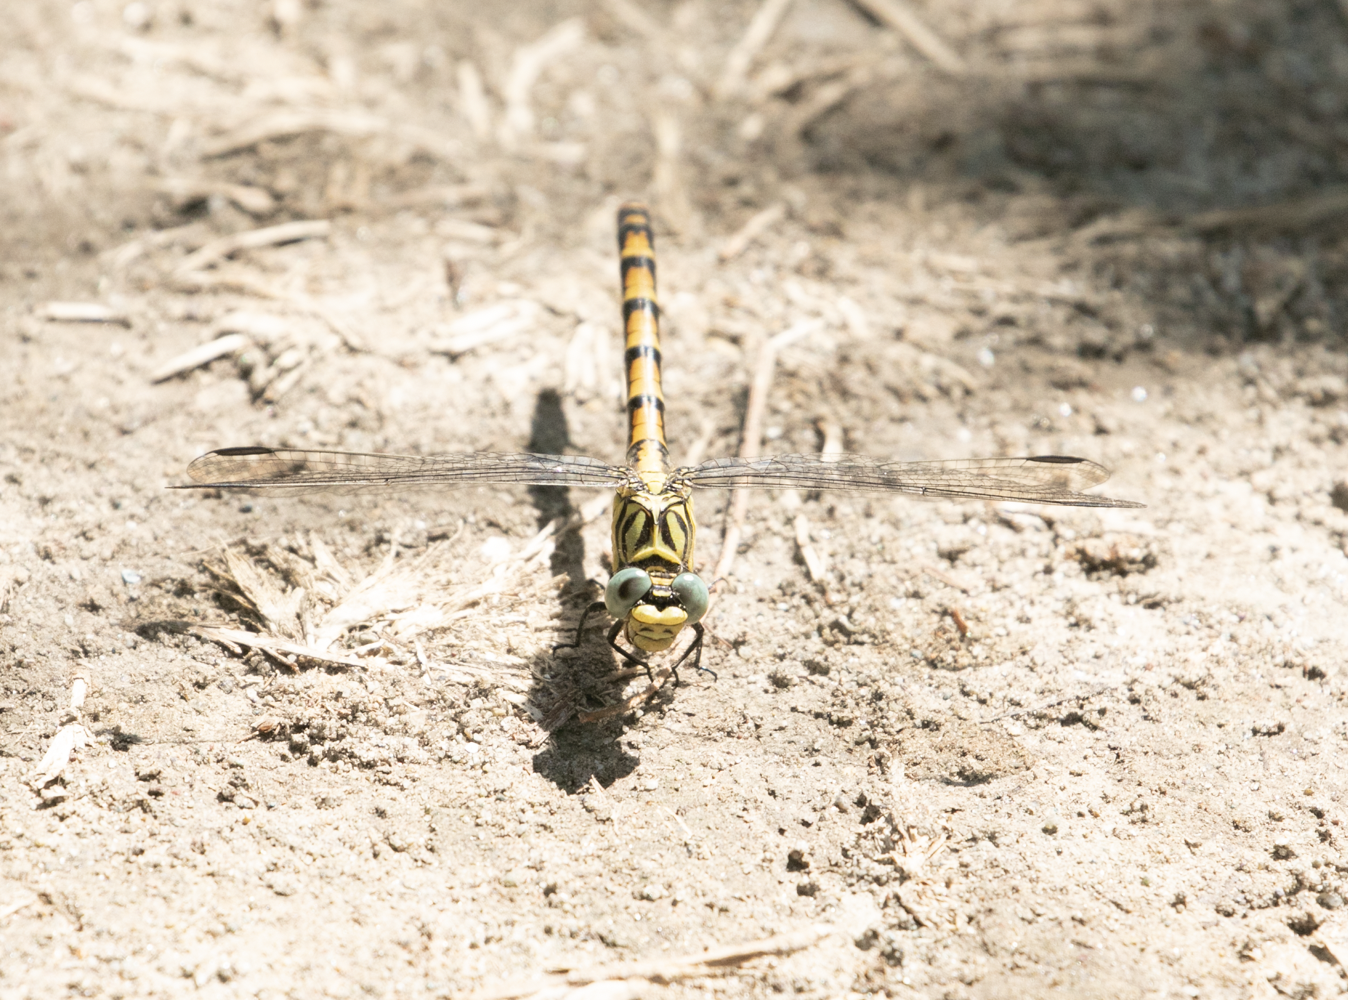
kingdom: Animalia
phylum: Arthropoda
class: Insecta
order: Odonata
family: Gomphidae
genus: Onychogomphus
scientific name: Onychogomphus forcipatus
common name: Small pincertail
